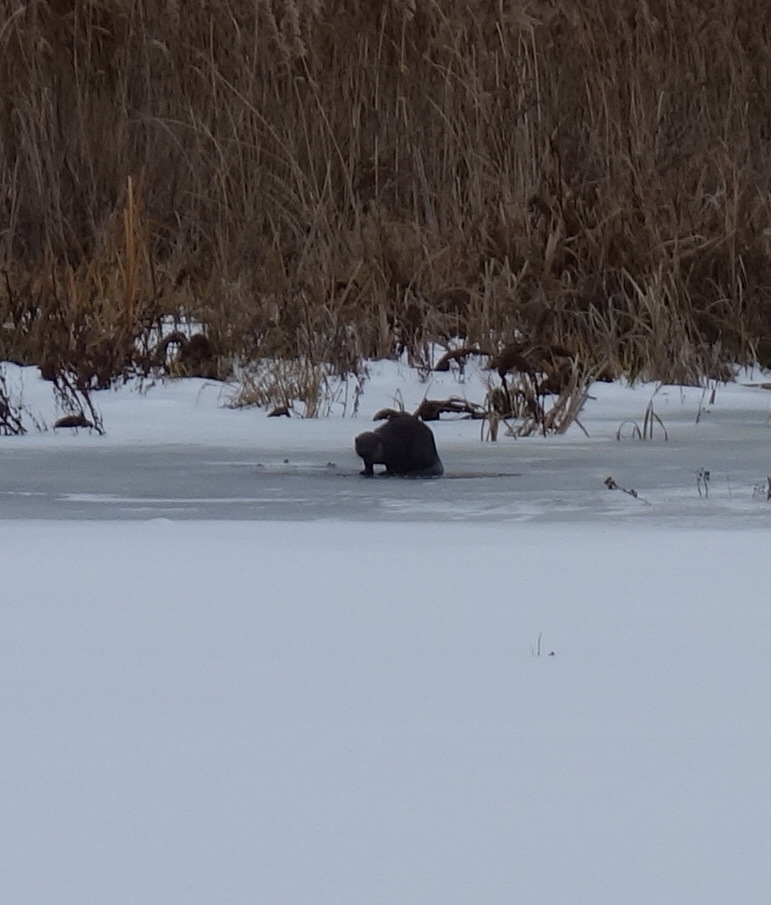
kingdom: Animalia
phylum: Chordata
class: Mammalia
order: Carnivora
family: Mustelidae
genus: Lutra
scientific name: Lutra lutra
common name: European otter
